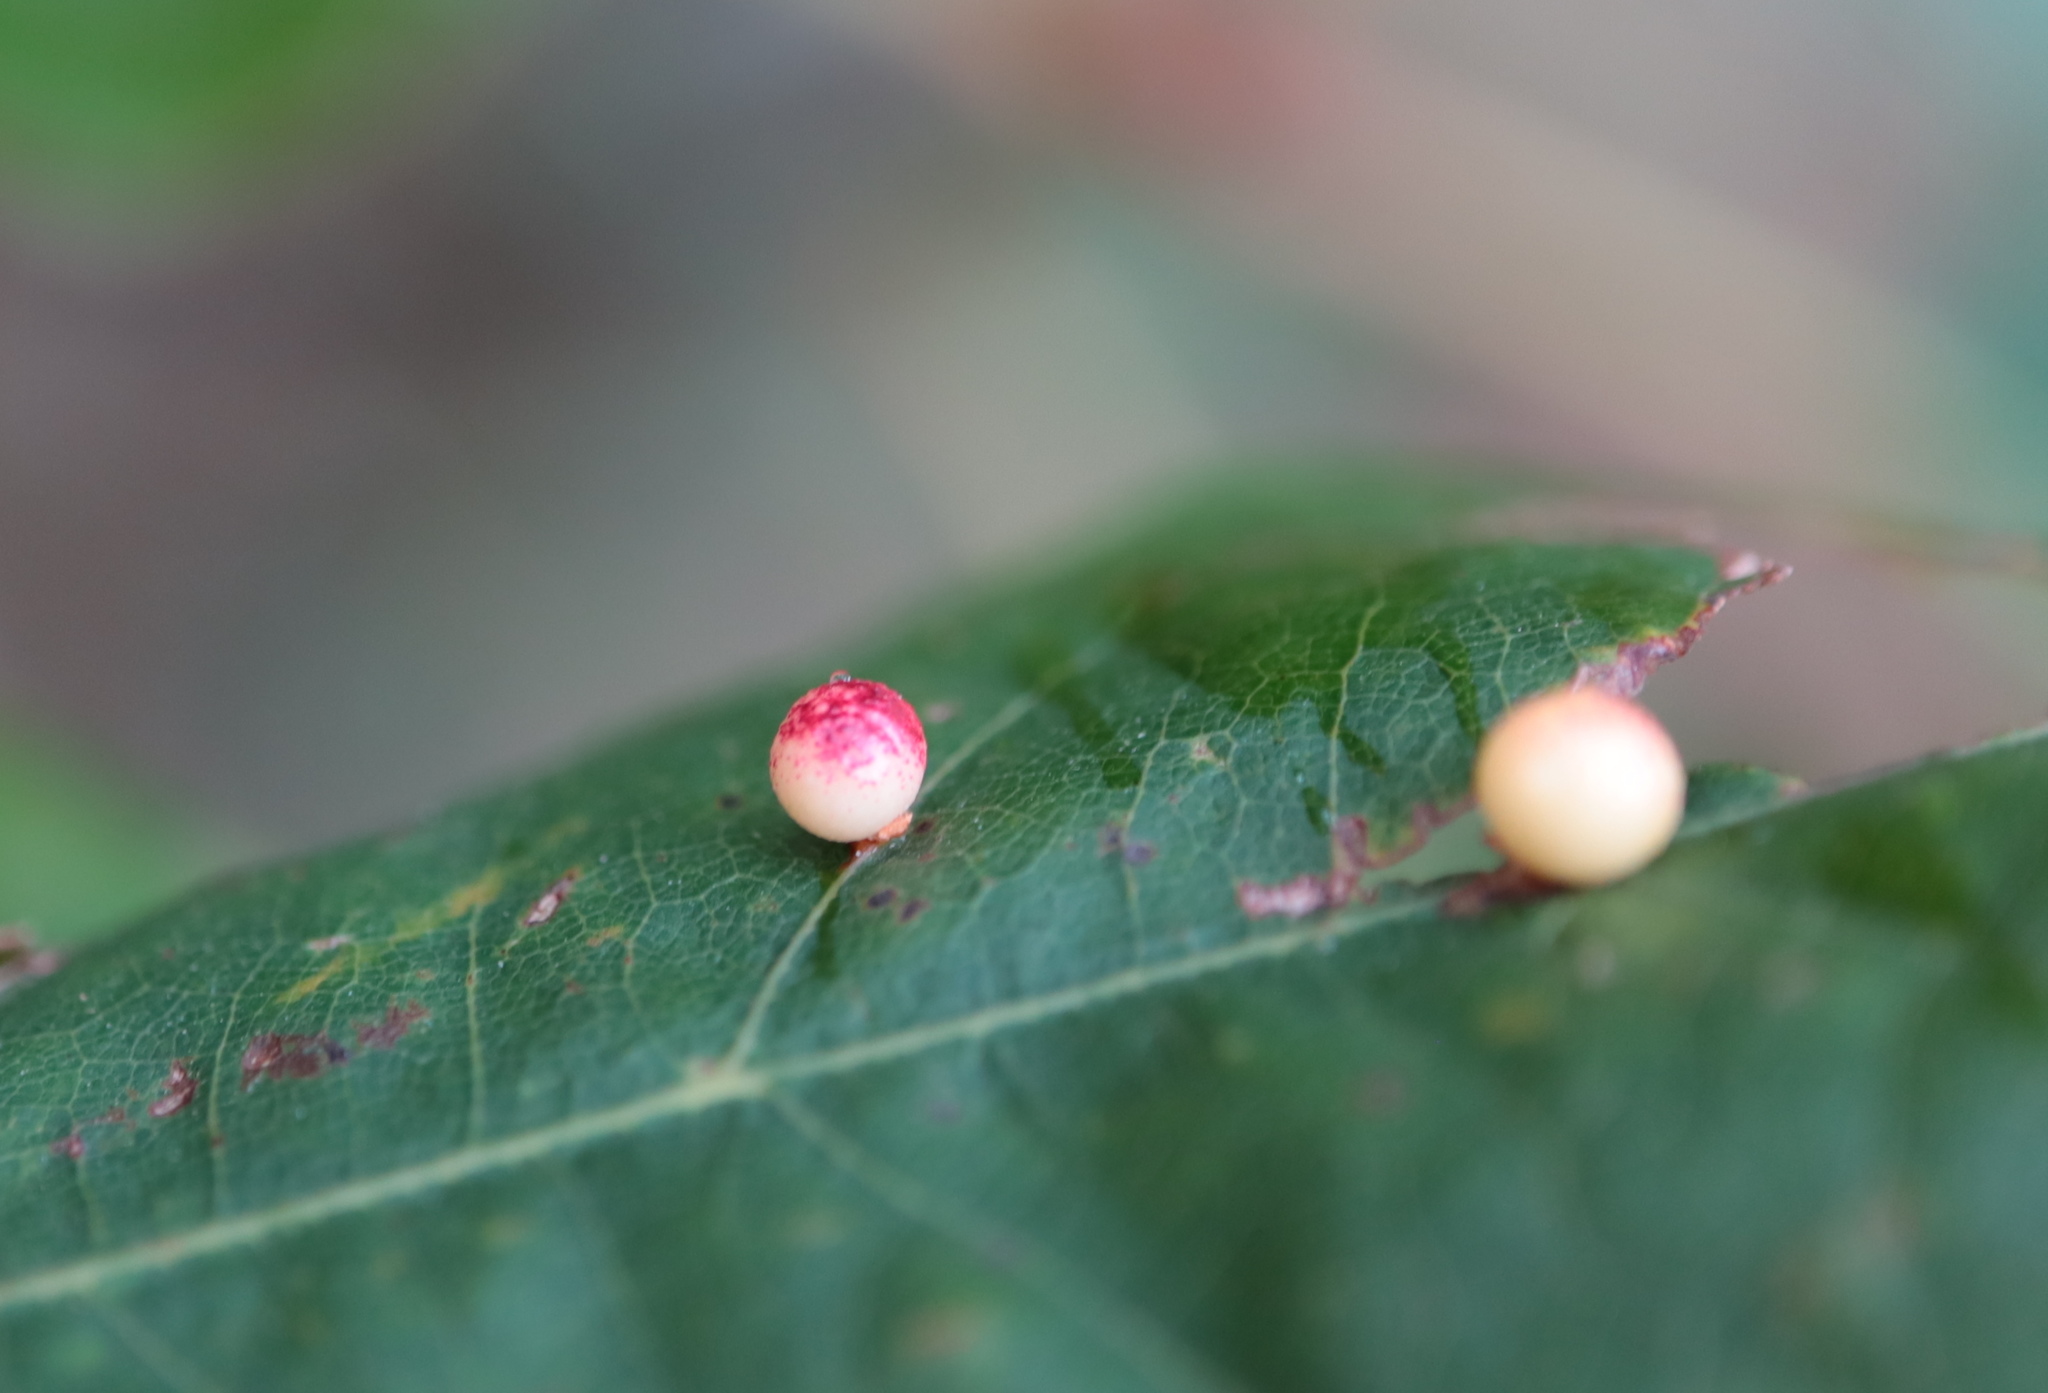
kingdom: Animalia
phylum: Arthropoda
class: Insecta
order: Hymenoptera
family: Cynipidae
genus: Zopheroteras
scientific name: Zopheroteras
